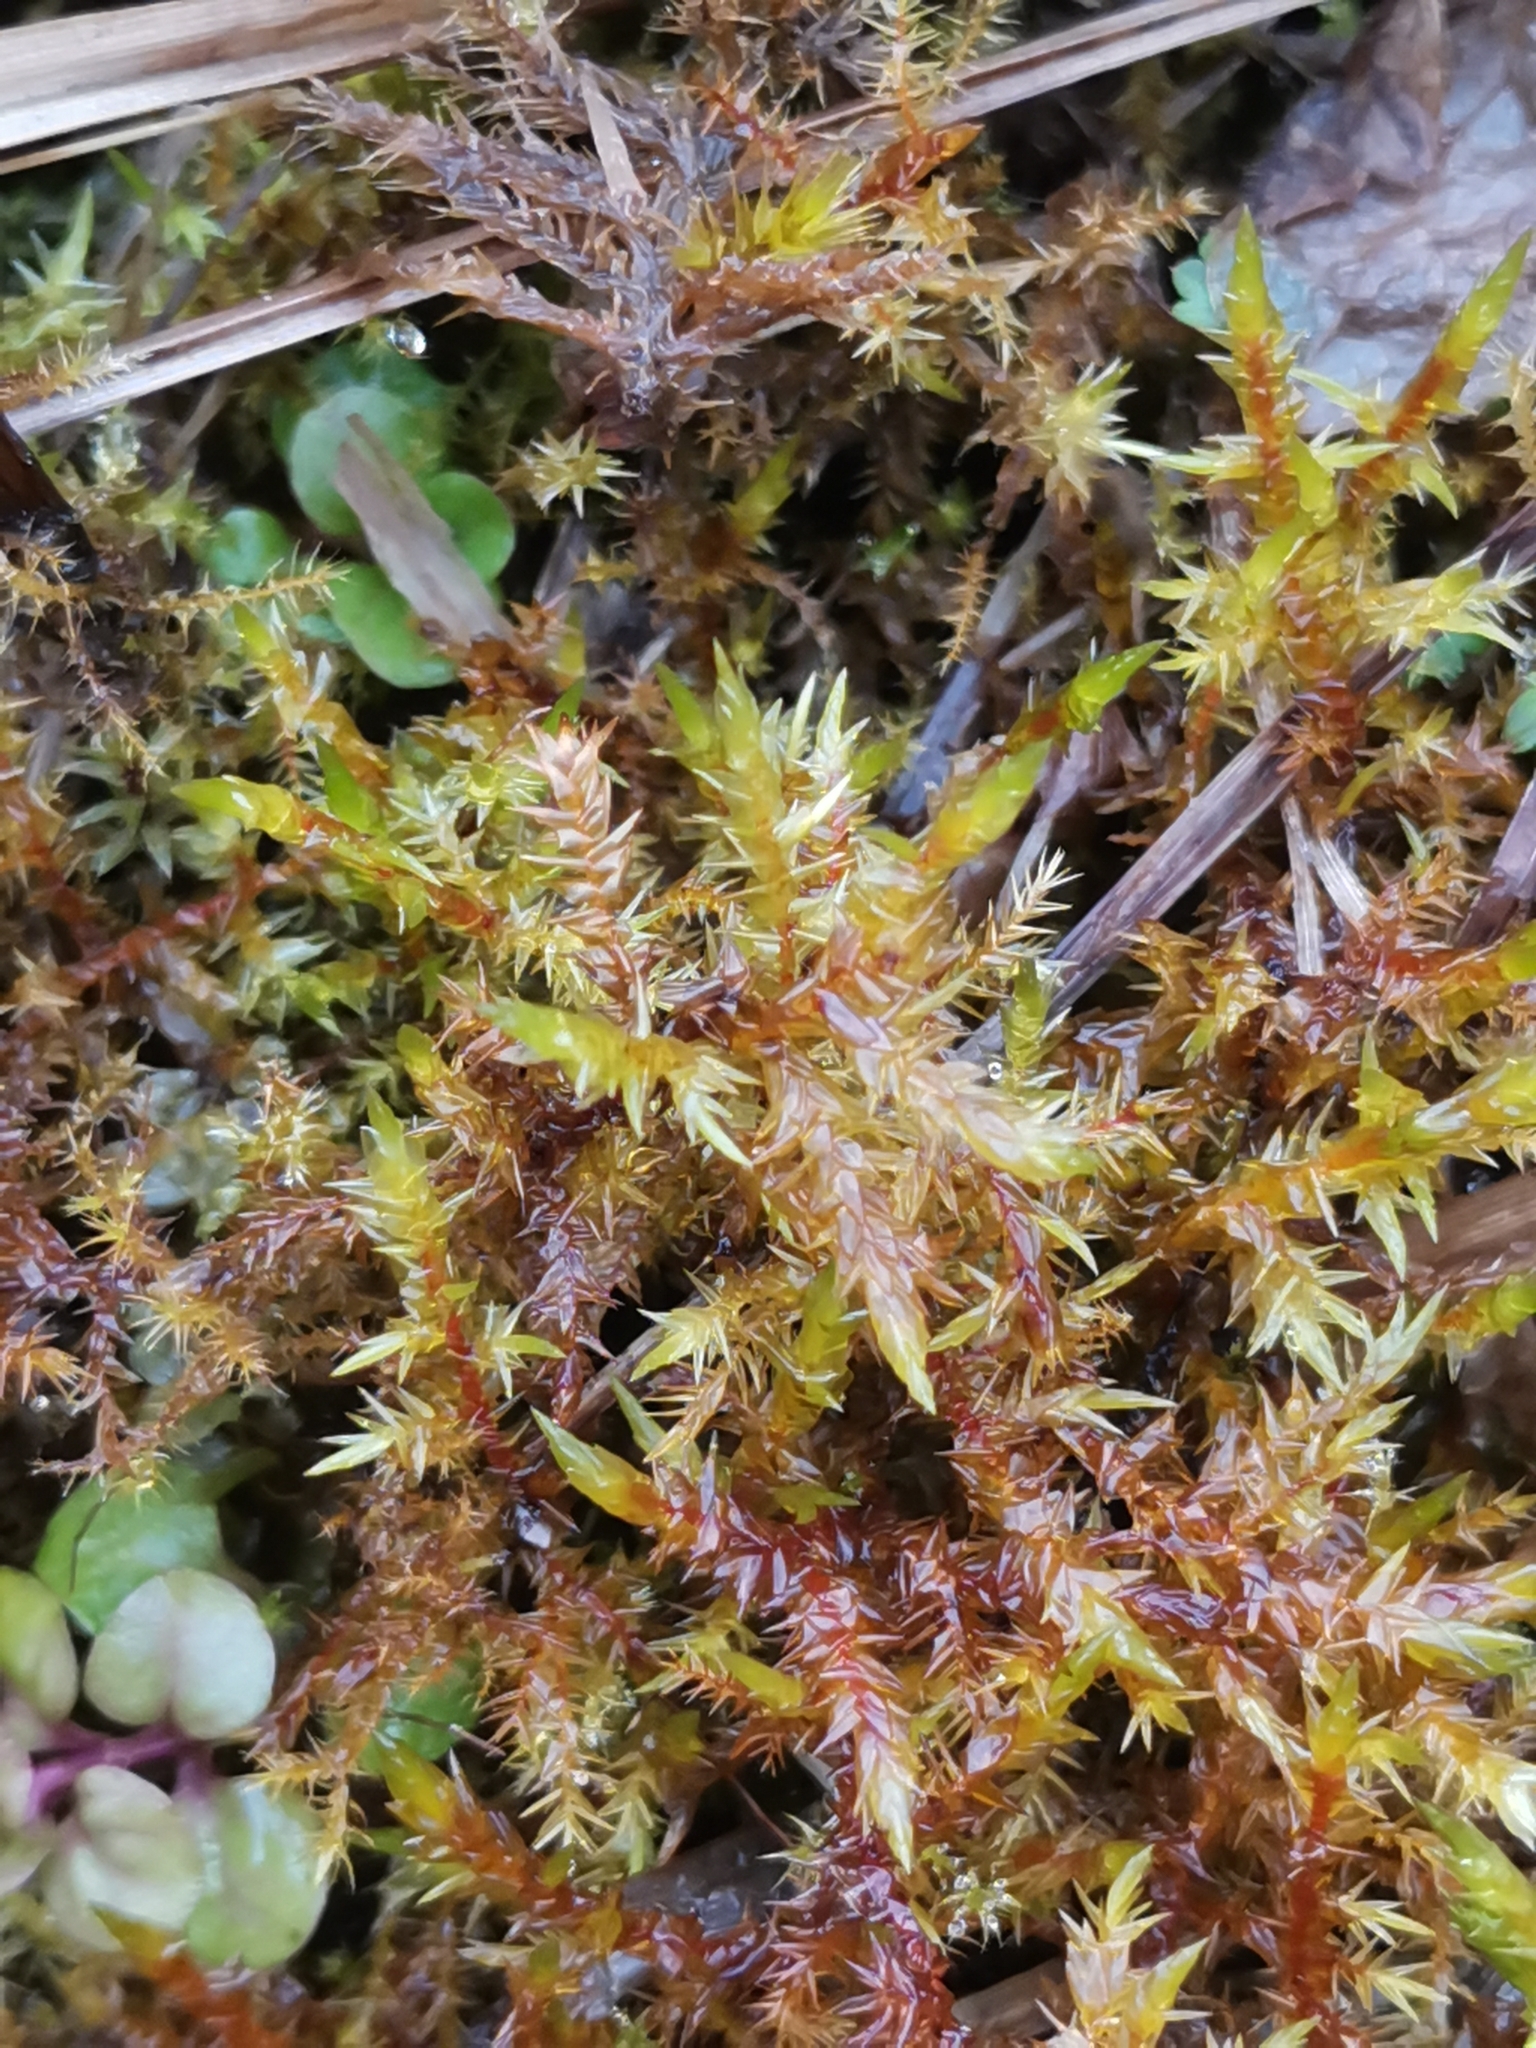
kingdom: Plantae
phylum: Bryophyta
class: Bryopsida
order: Hypnales
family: Pylaisiaceae
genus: Calliergonella
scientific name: Calliergonella cuspidata
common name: Common large wetland moss
